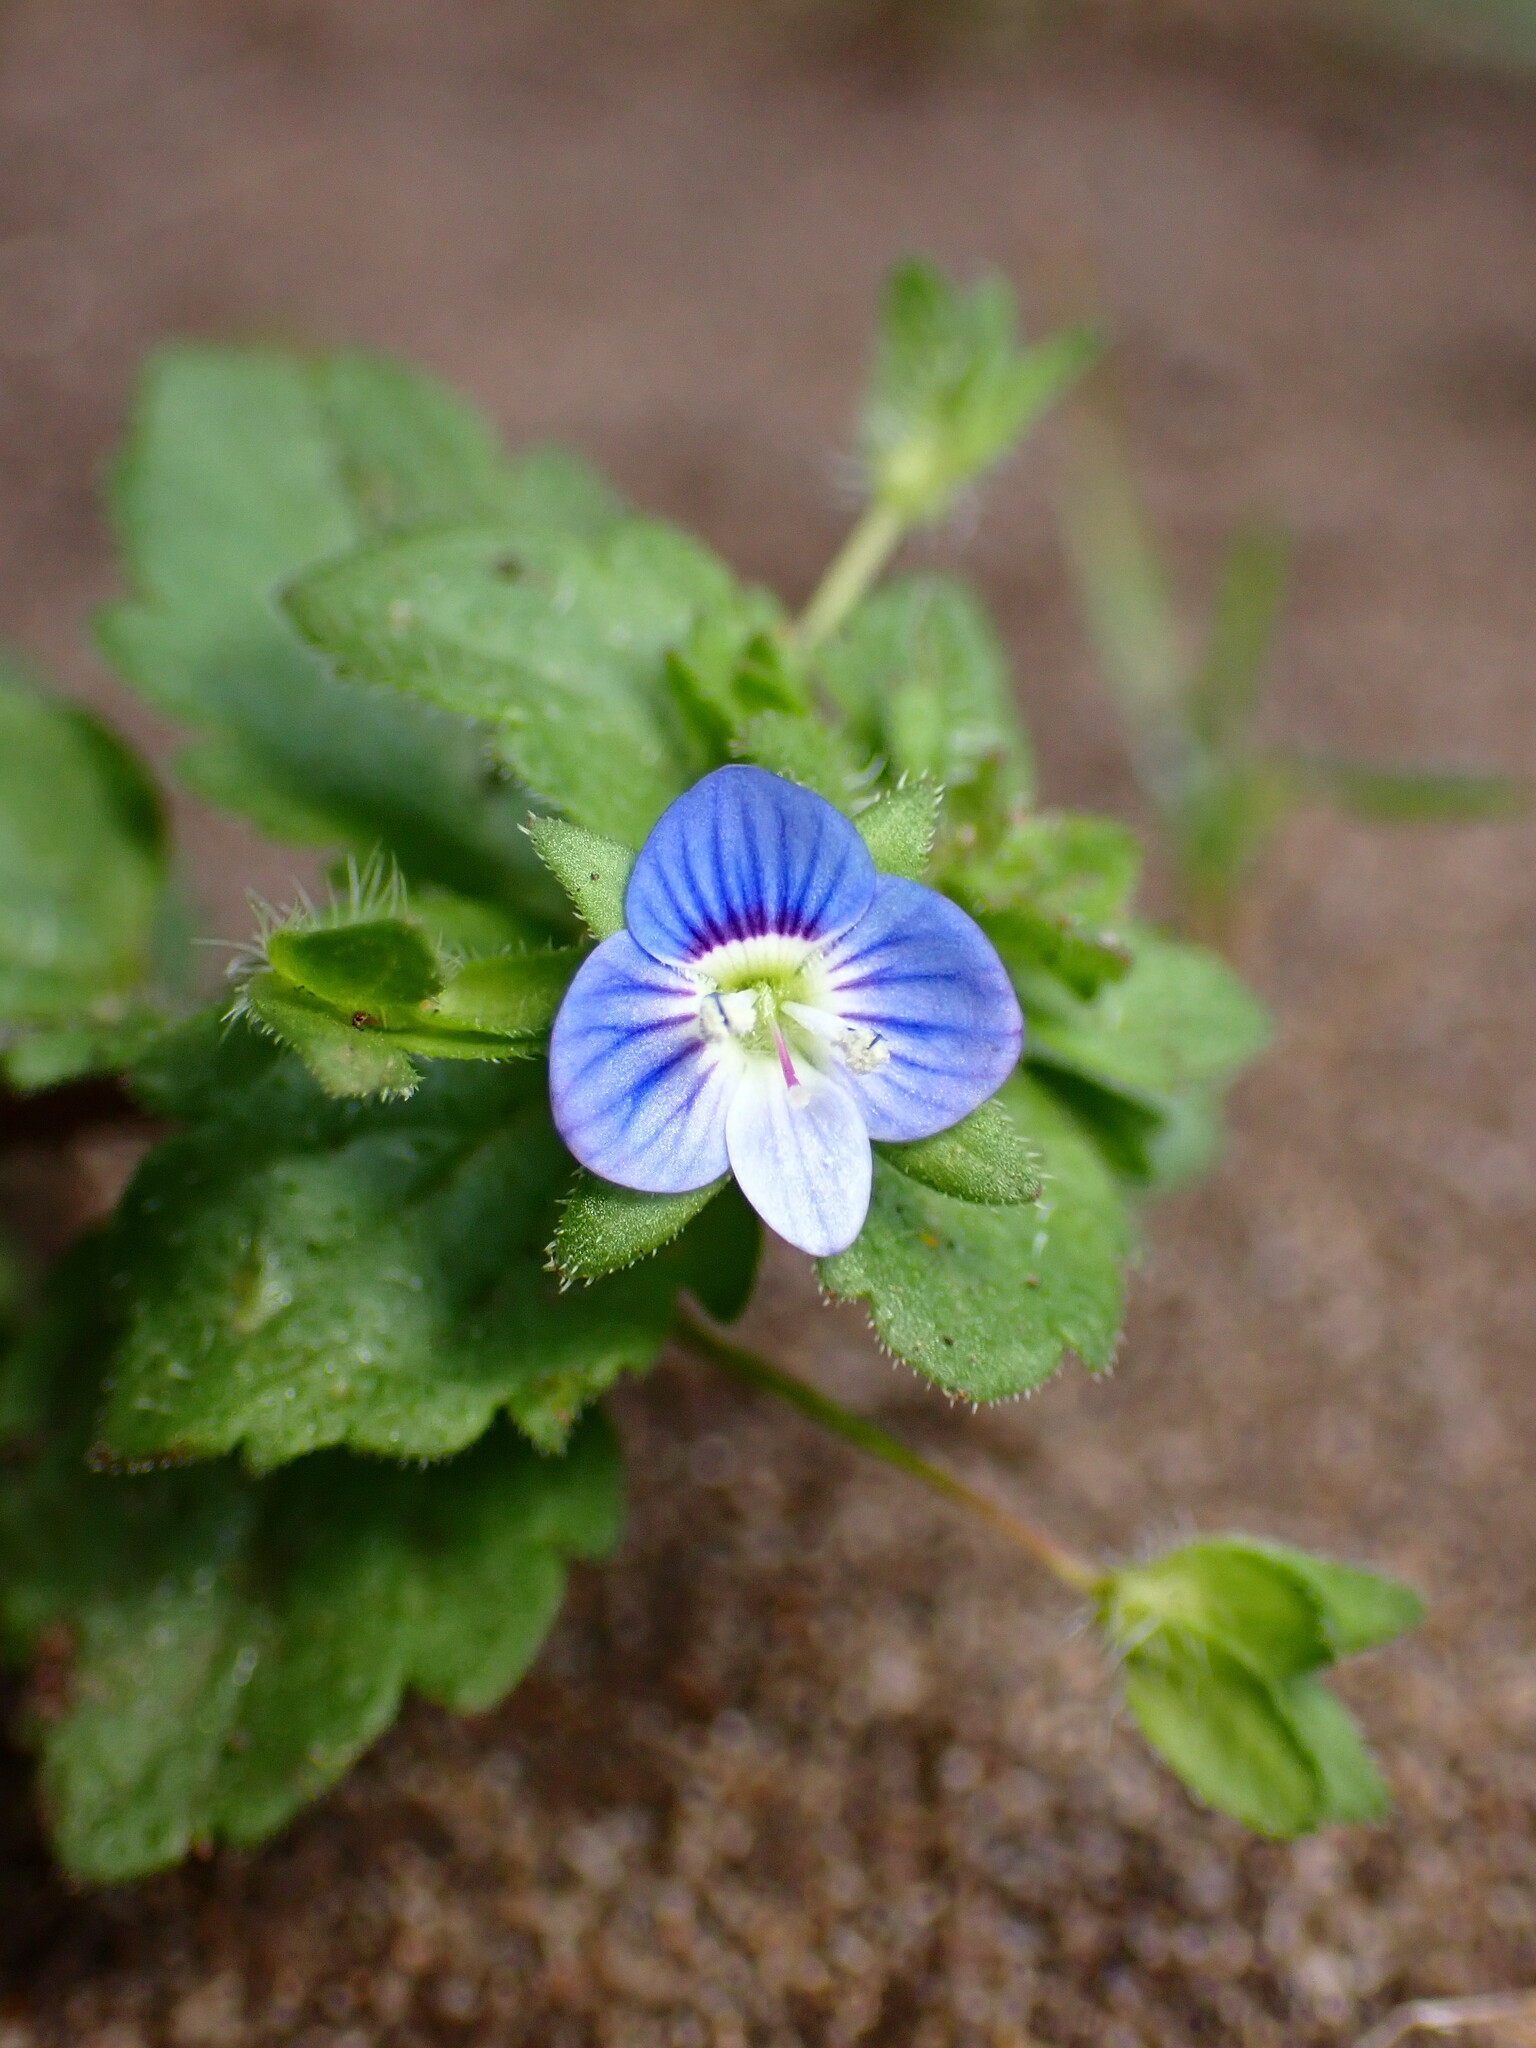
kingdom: Plantae
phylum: Tracheophyta
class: Magnoliopsida
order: Lamiales
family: Plantaginaceae
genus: Veronica
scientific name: Veronica persica
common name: Common field-speedwell
